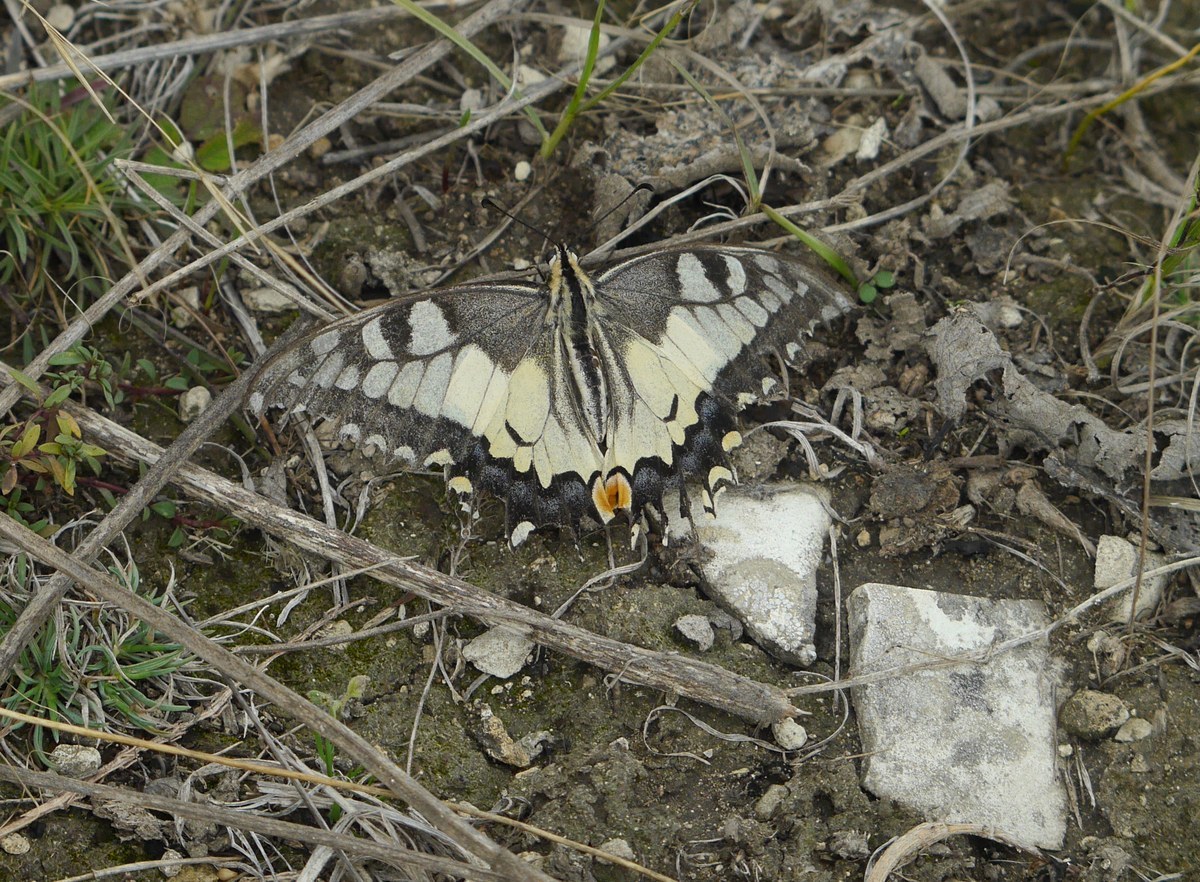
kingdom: Animalia
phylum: Arthropoda
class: Insecta
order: Lepidoptera
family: Papilionidae
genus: Papilio
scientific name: Papilio machaon
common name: Swallowtail
